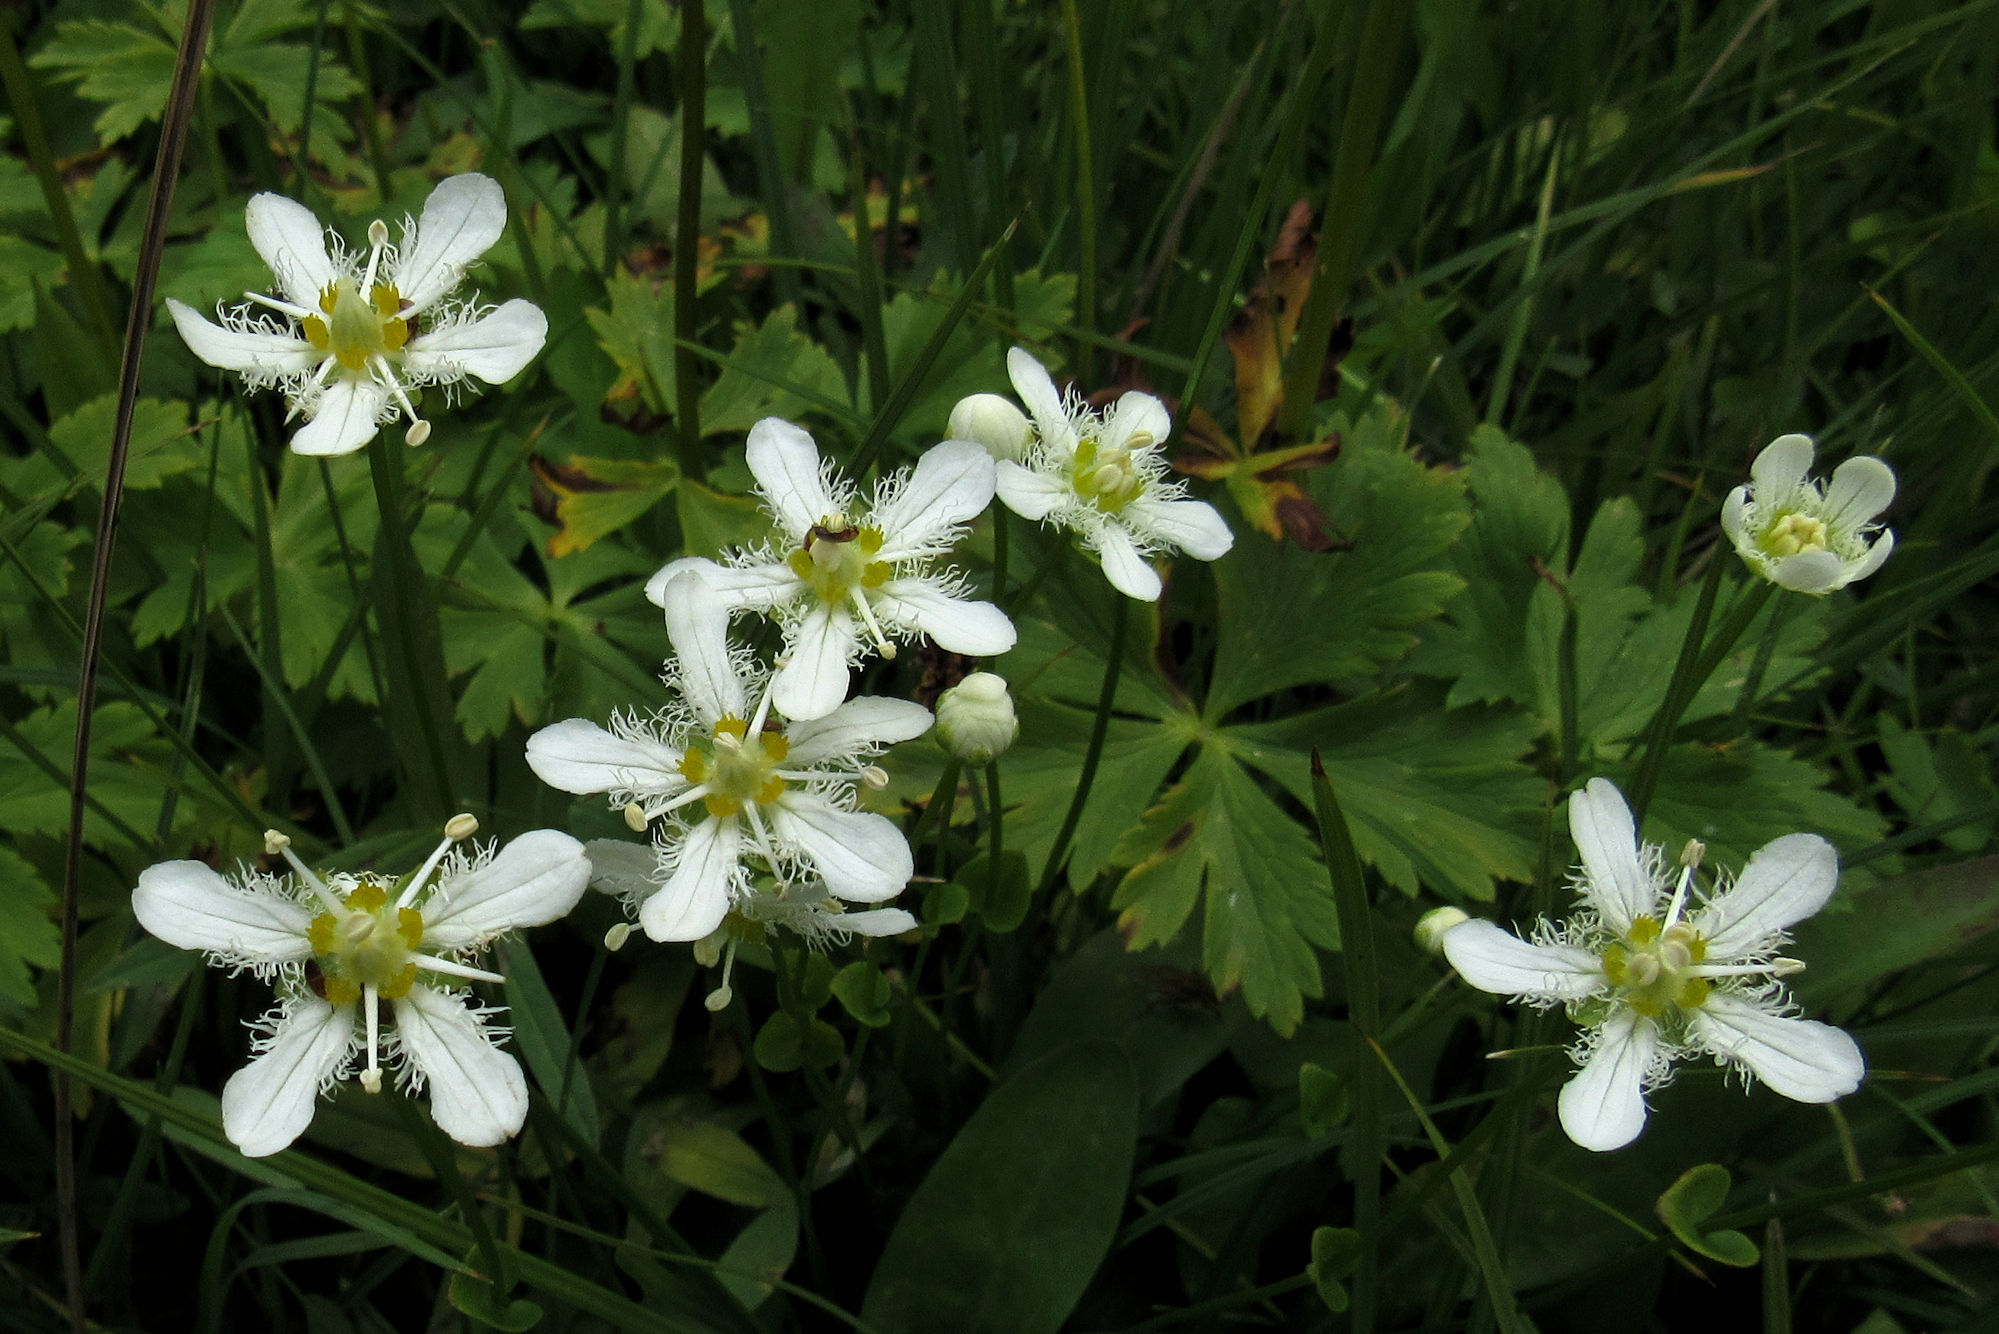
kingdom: Plantae
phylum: Tracheophyta
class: Magnoliopsida
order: Celastrales
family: Parnassiaceae
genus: Parnassia
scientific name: Parnassia fimbriata
